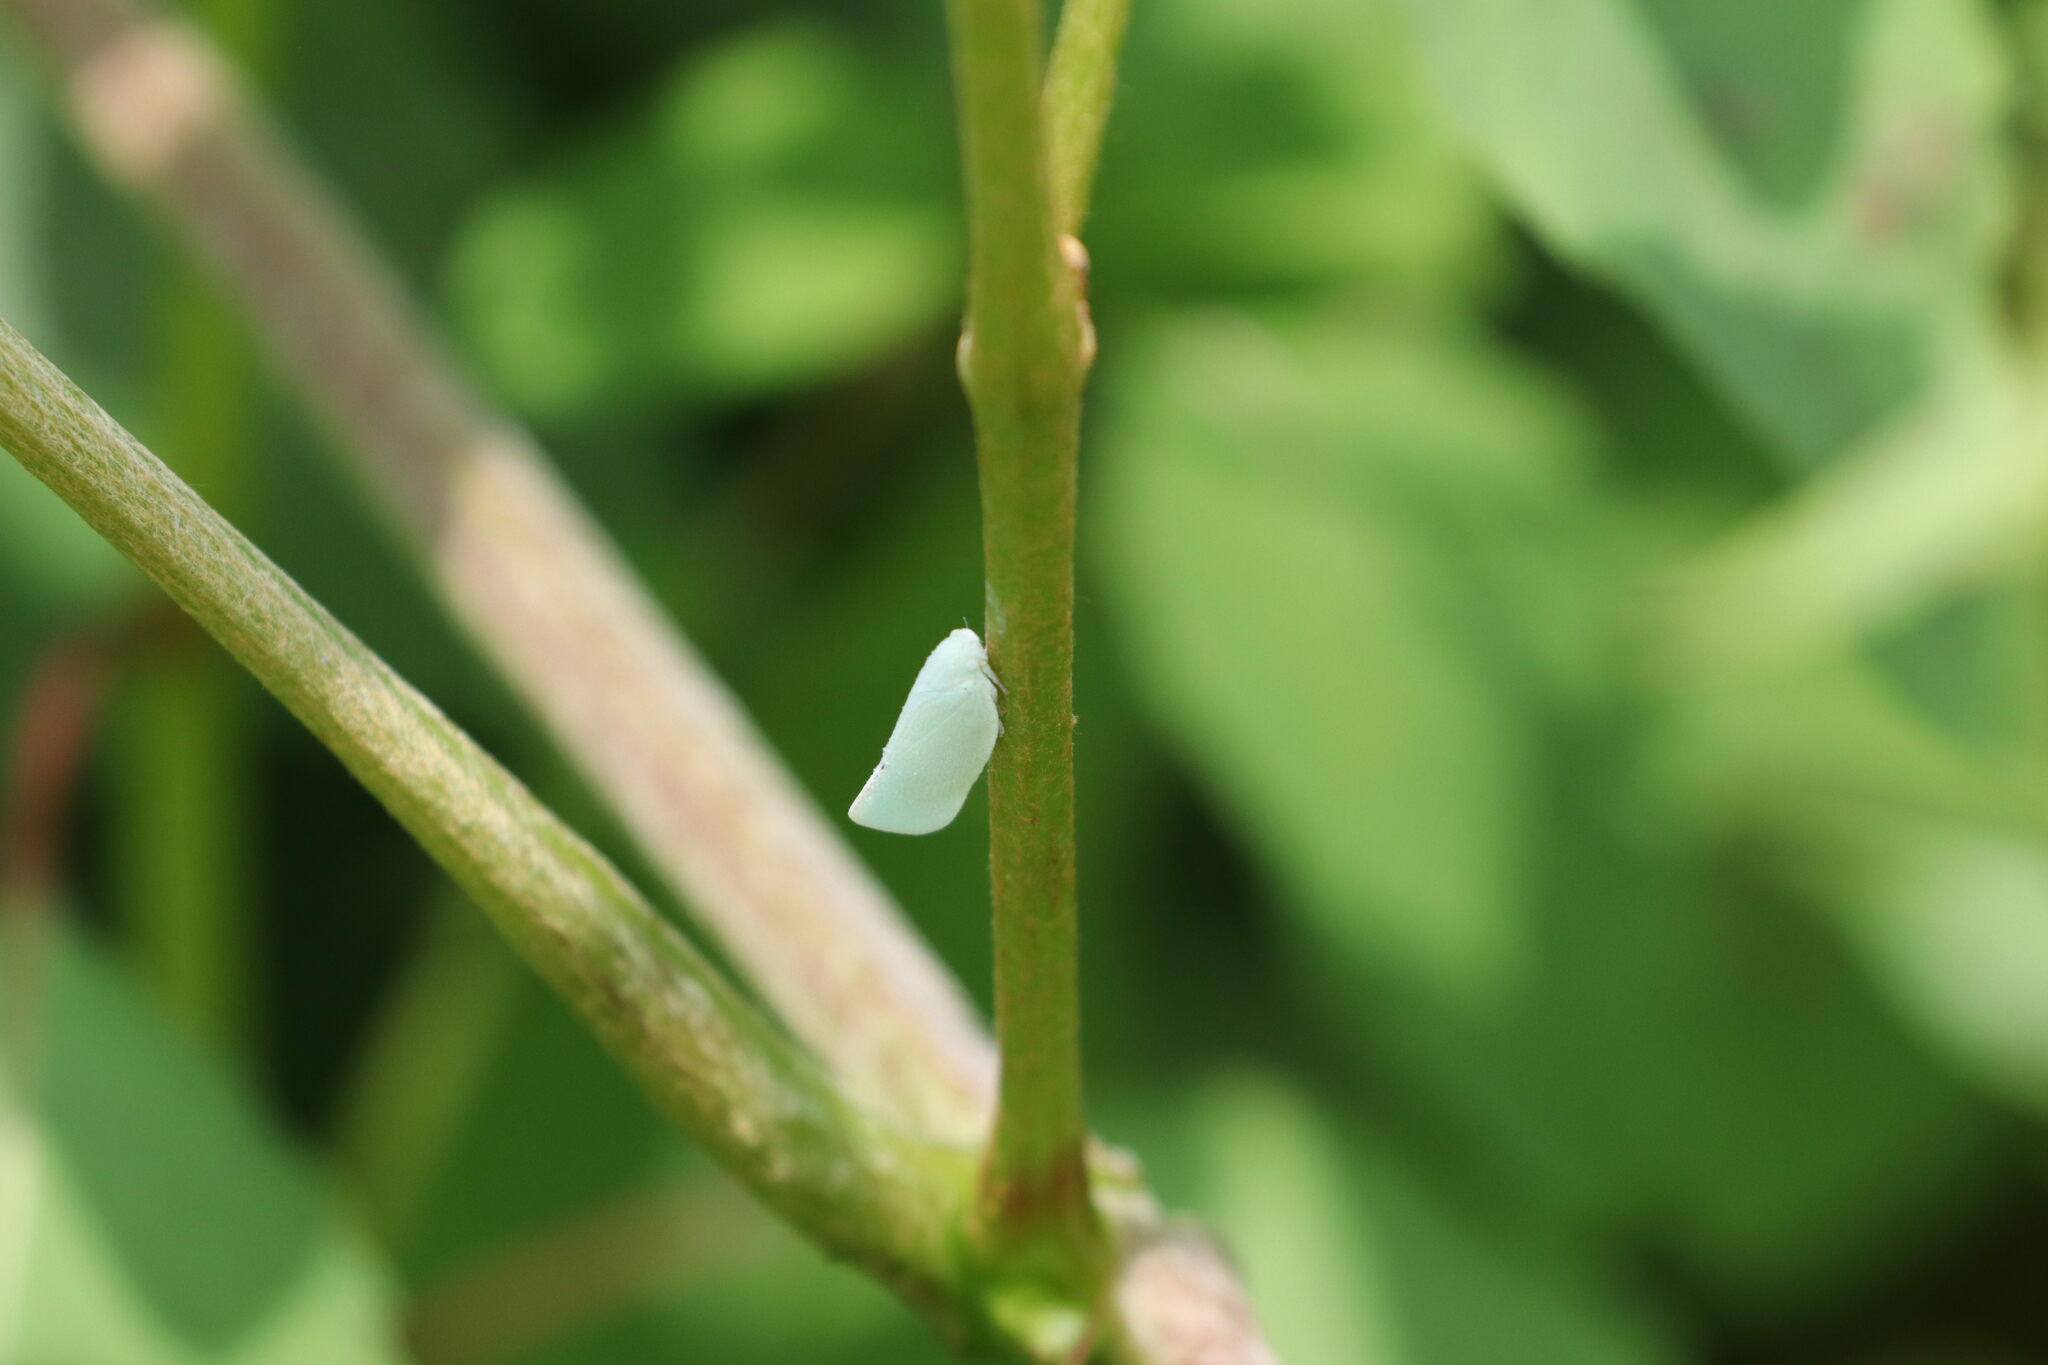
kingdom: Animalia
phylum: Arthropoda
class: Insecta
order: Hemiptera
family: Flatidae
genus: Flatormenis
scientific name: Flatormenis proxima
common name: Northern flatid planthopper
